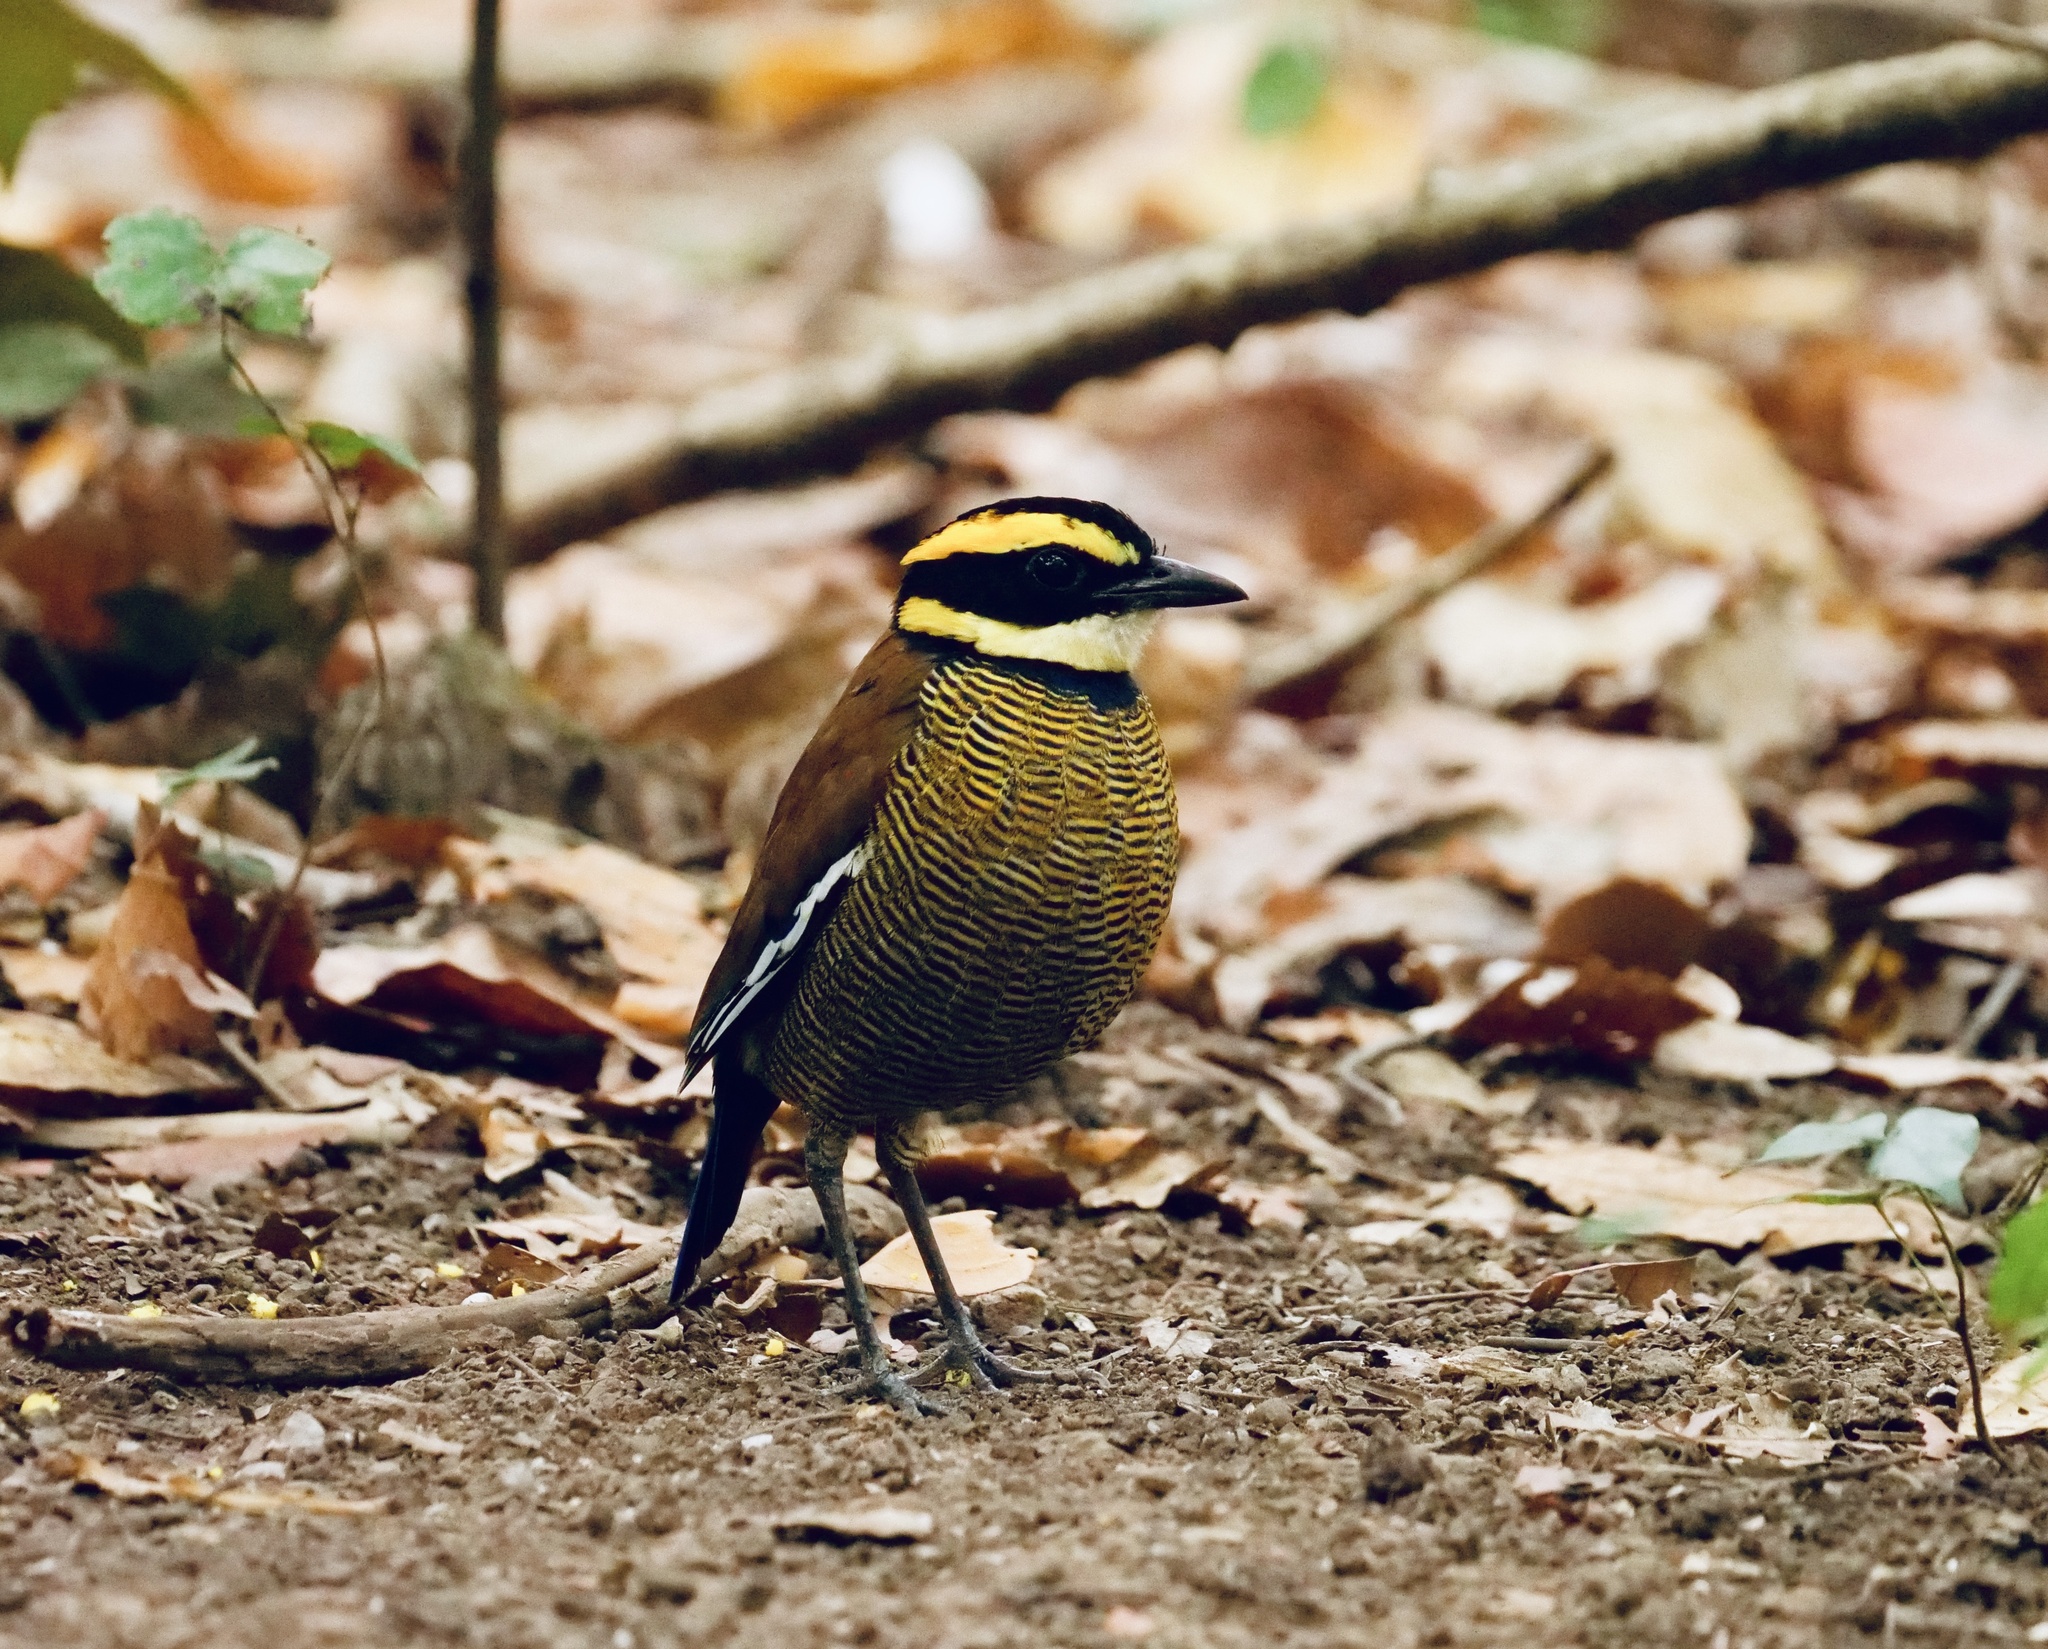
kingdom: Animalia
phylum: Chordata
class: Aves
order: Passeriformes
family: Pittidae
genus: Pitta
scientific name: Pitta guajana
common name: Banded pitta
